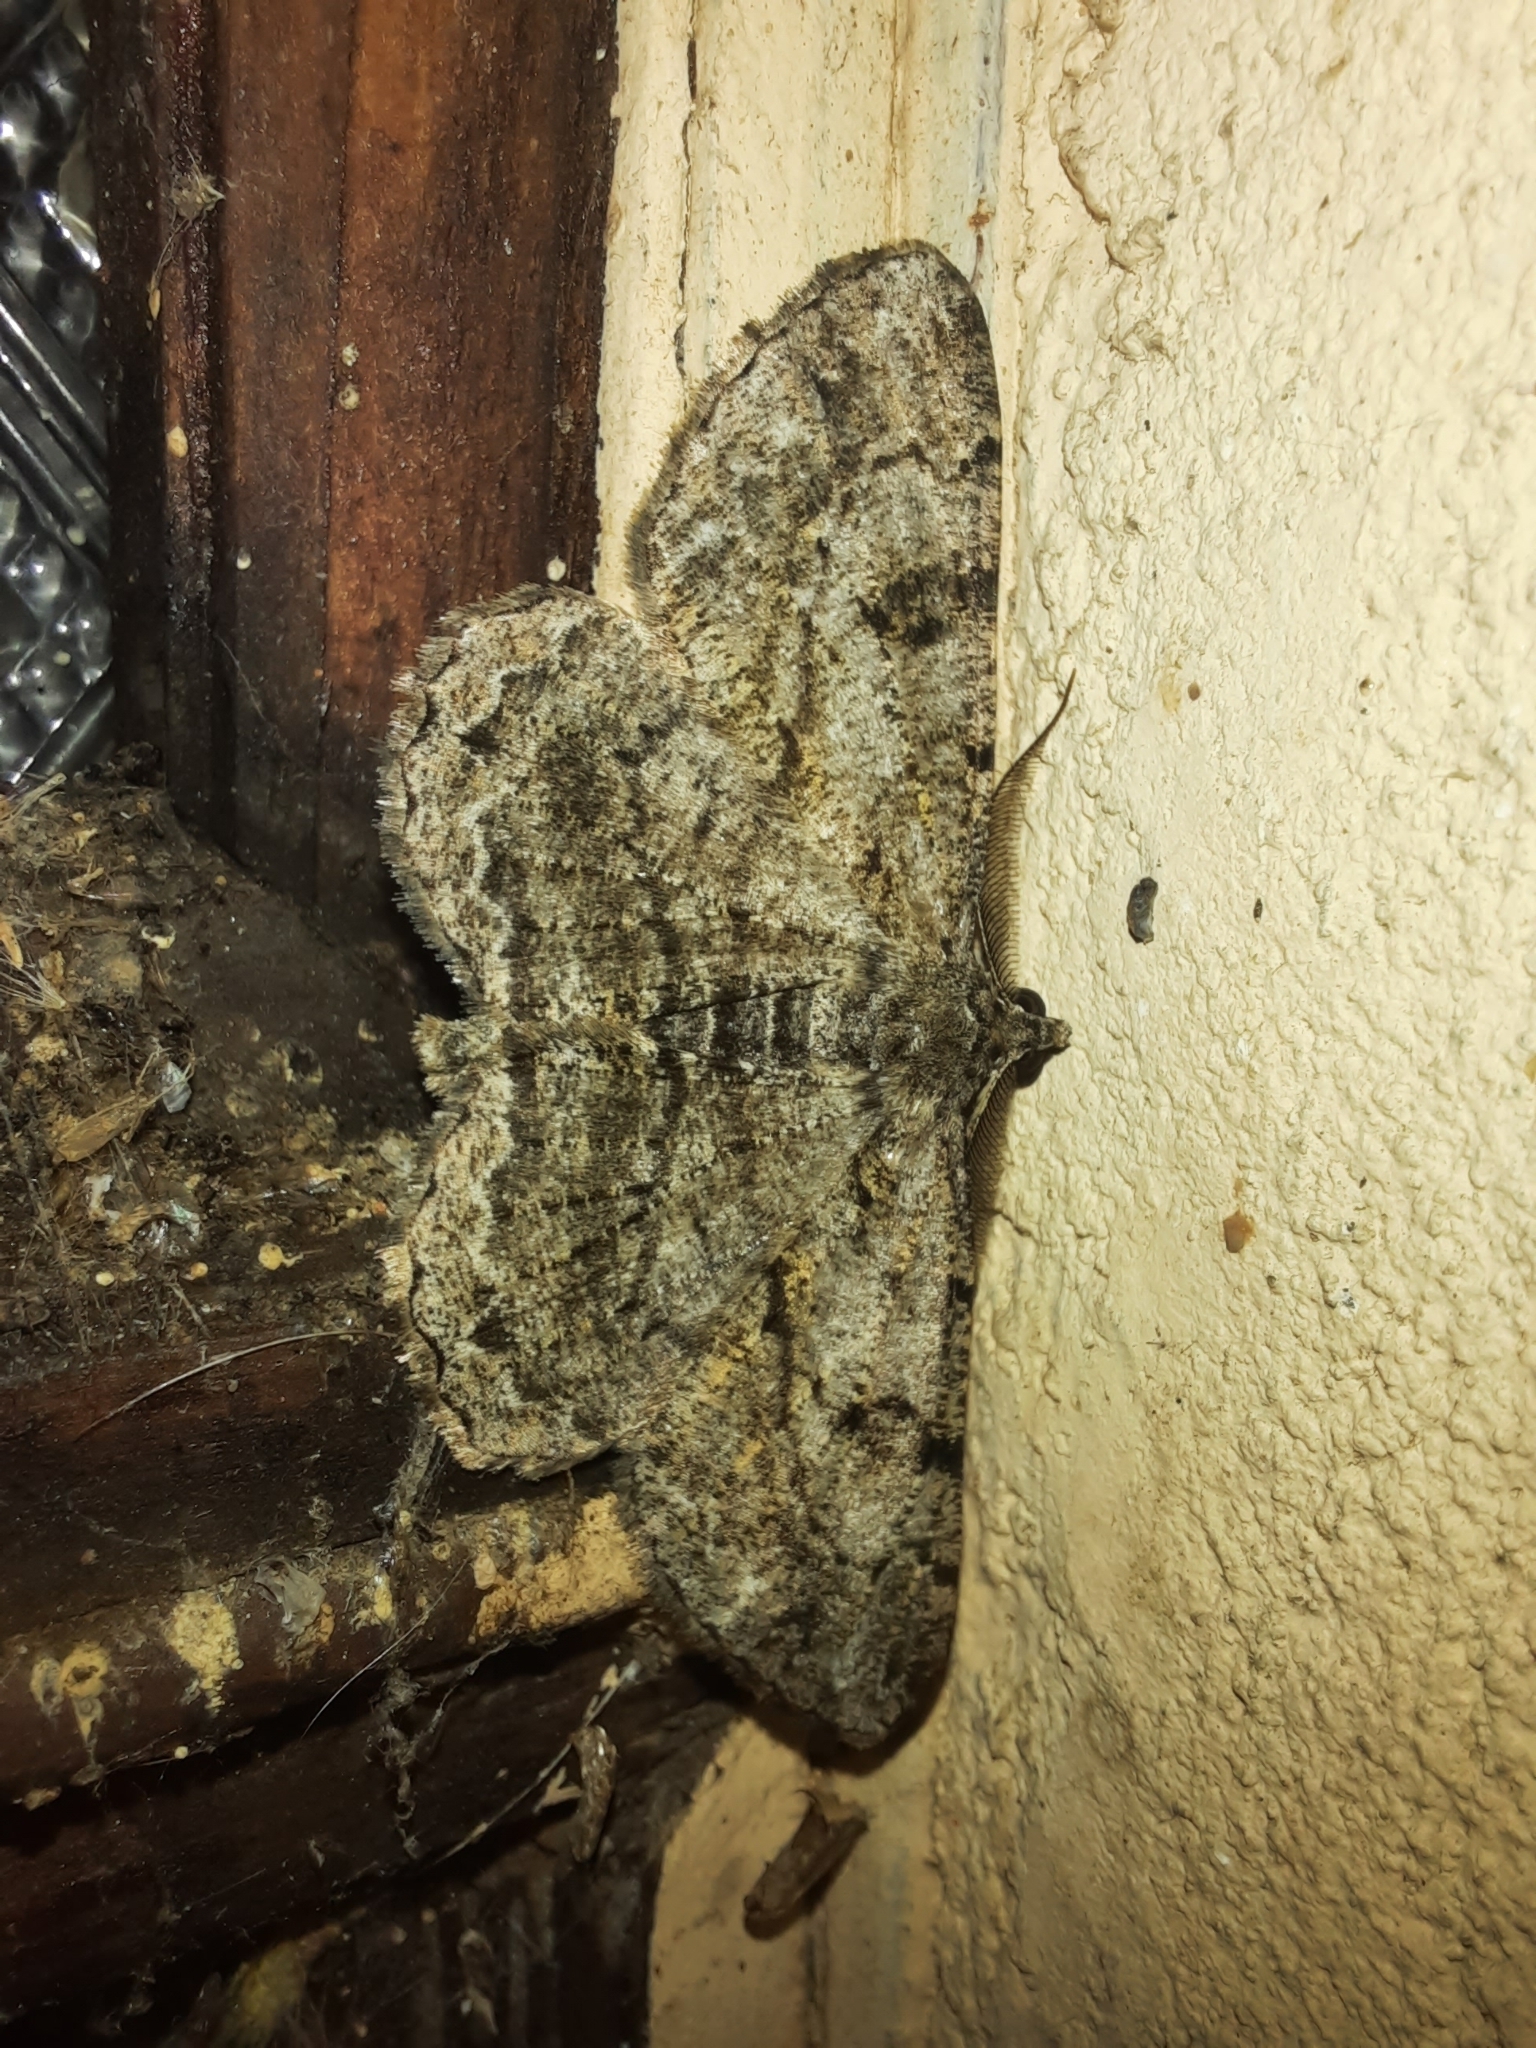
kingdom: Animalia
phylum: Arthropoda
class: Insecta
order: Lepidoptera
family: Geometridae
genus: Peribatodes
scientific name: Peribatodes rhomboidaria
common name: Willow beauty
